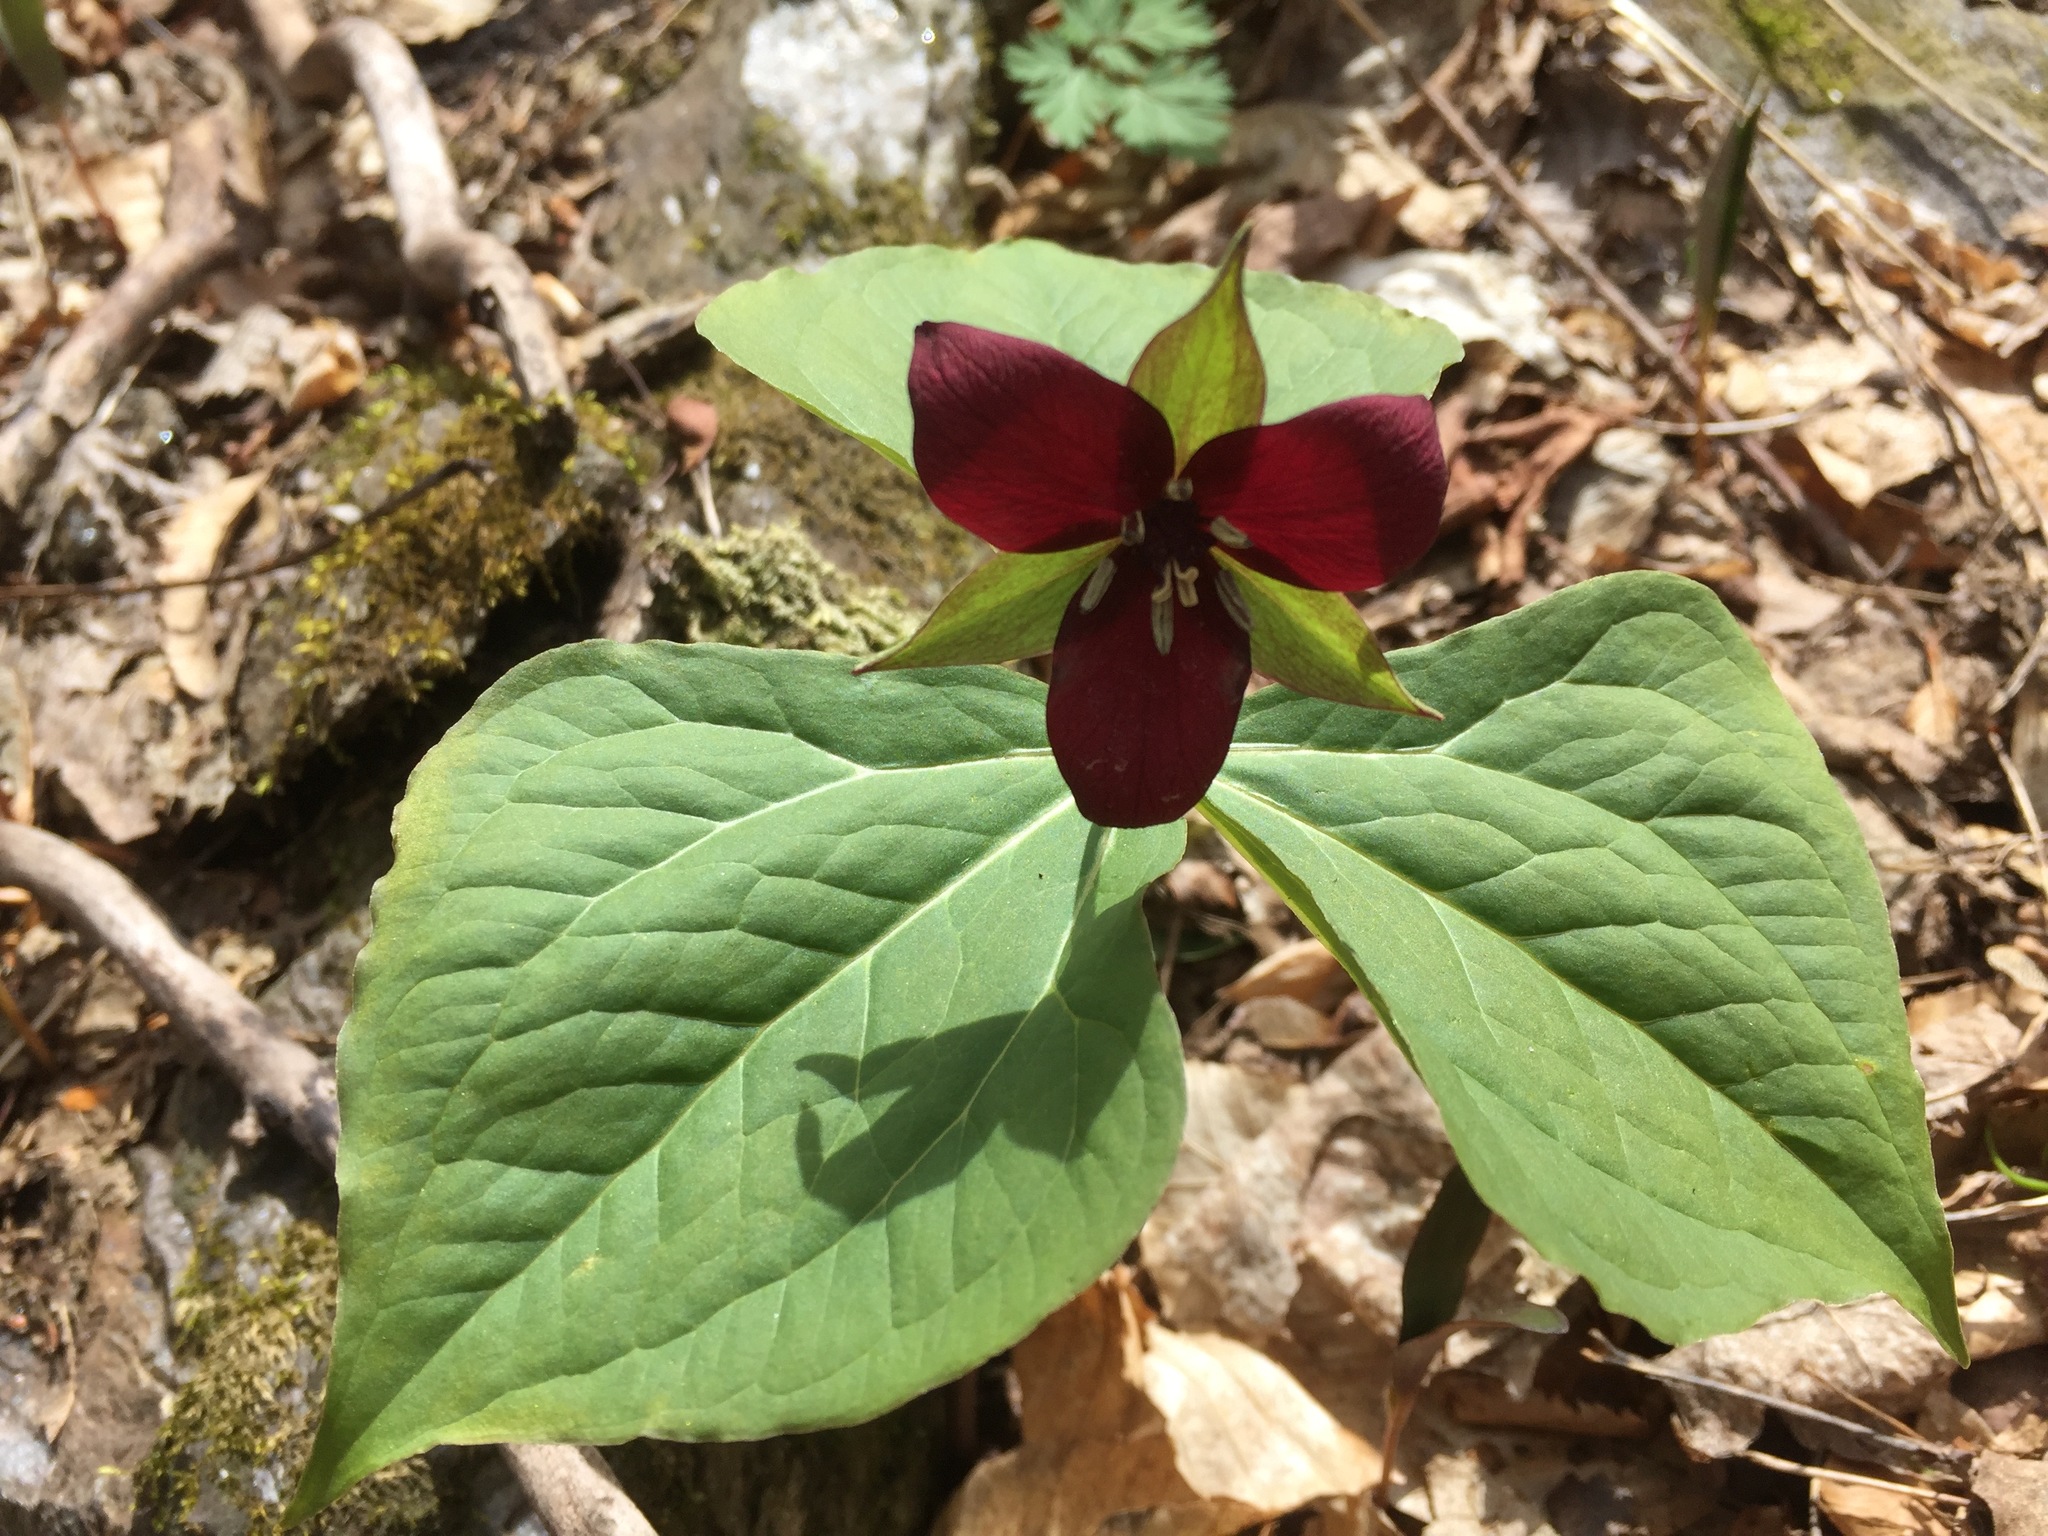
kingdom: Plantae
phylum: Tracheophyta
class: Liliopsida
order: Liliales
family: Melanthiaceae
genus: Trillium
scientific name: Trillium erectum
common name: Purple trillium
